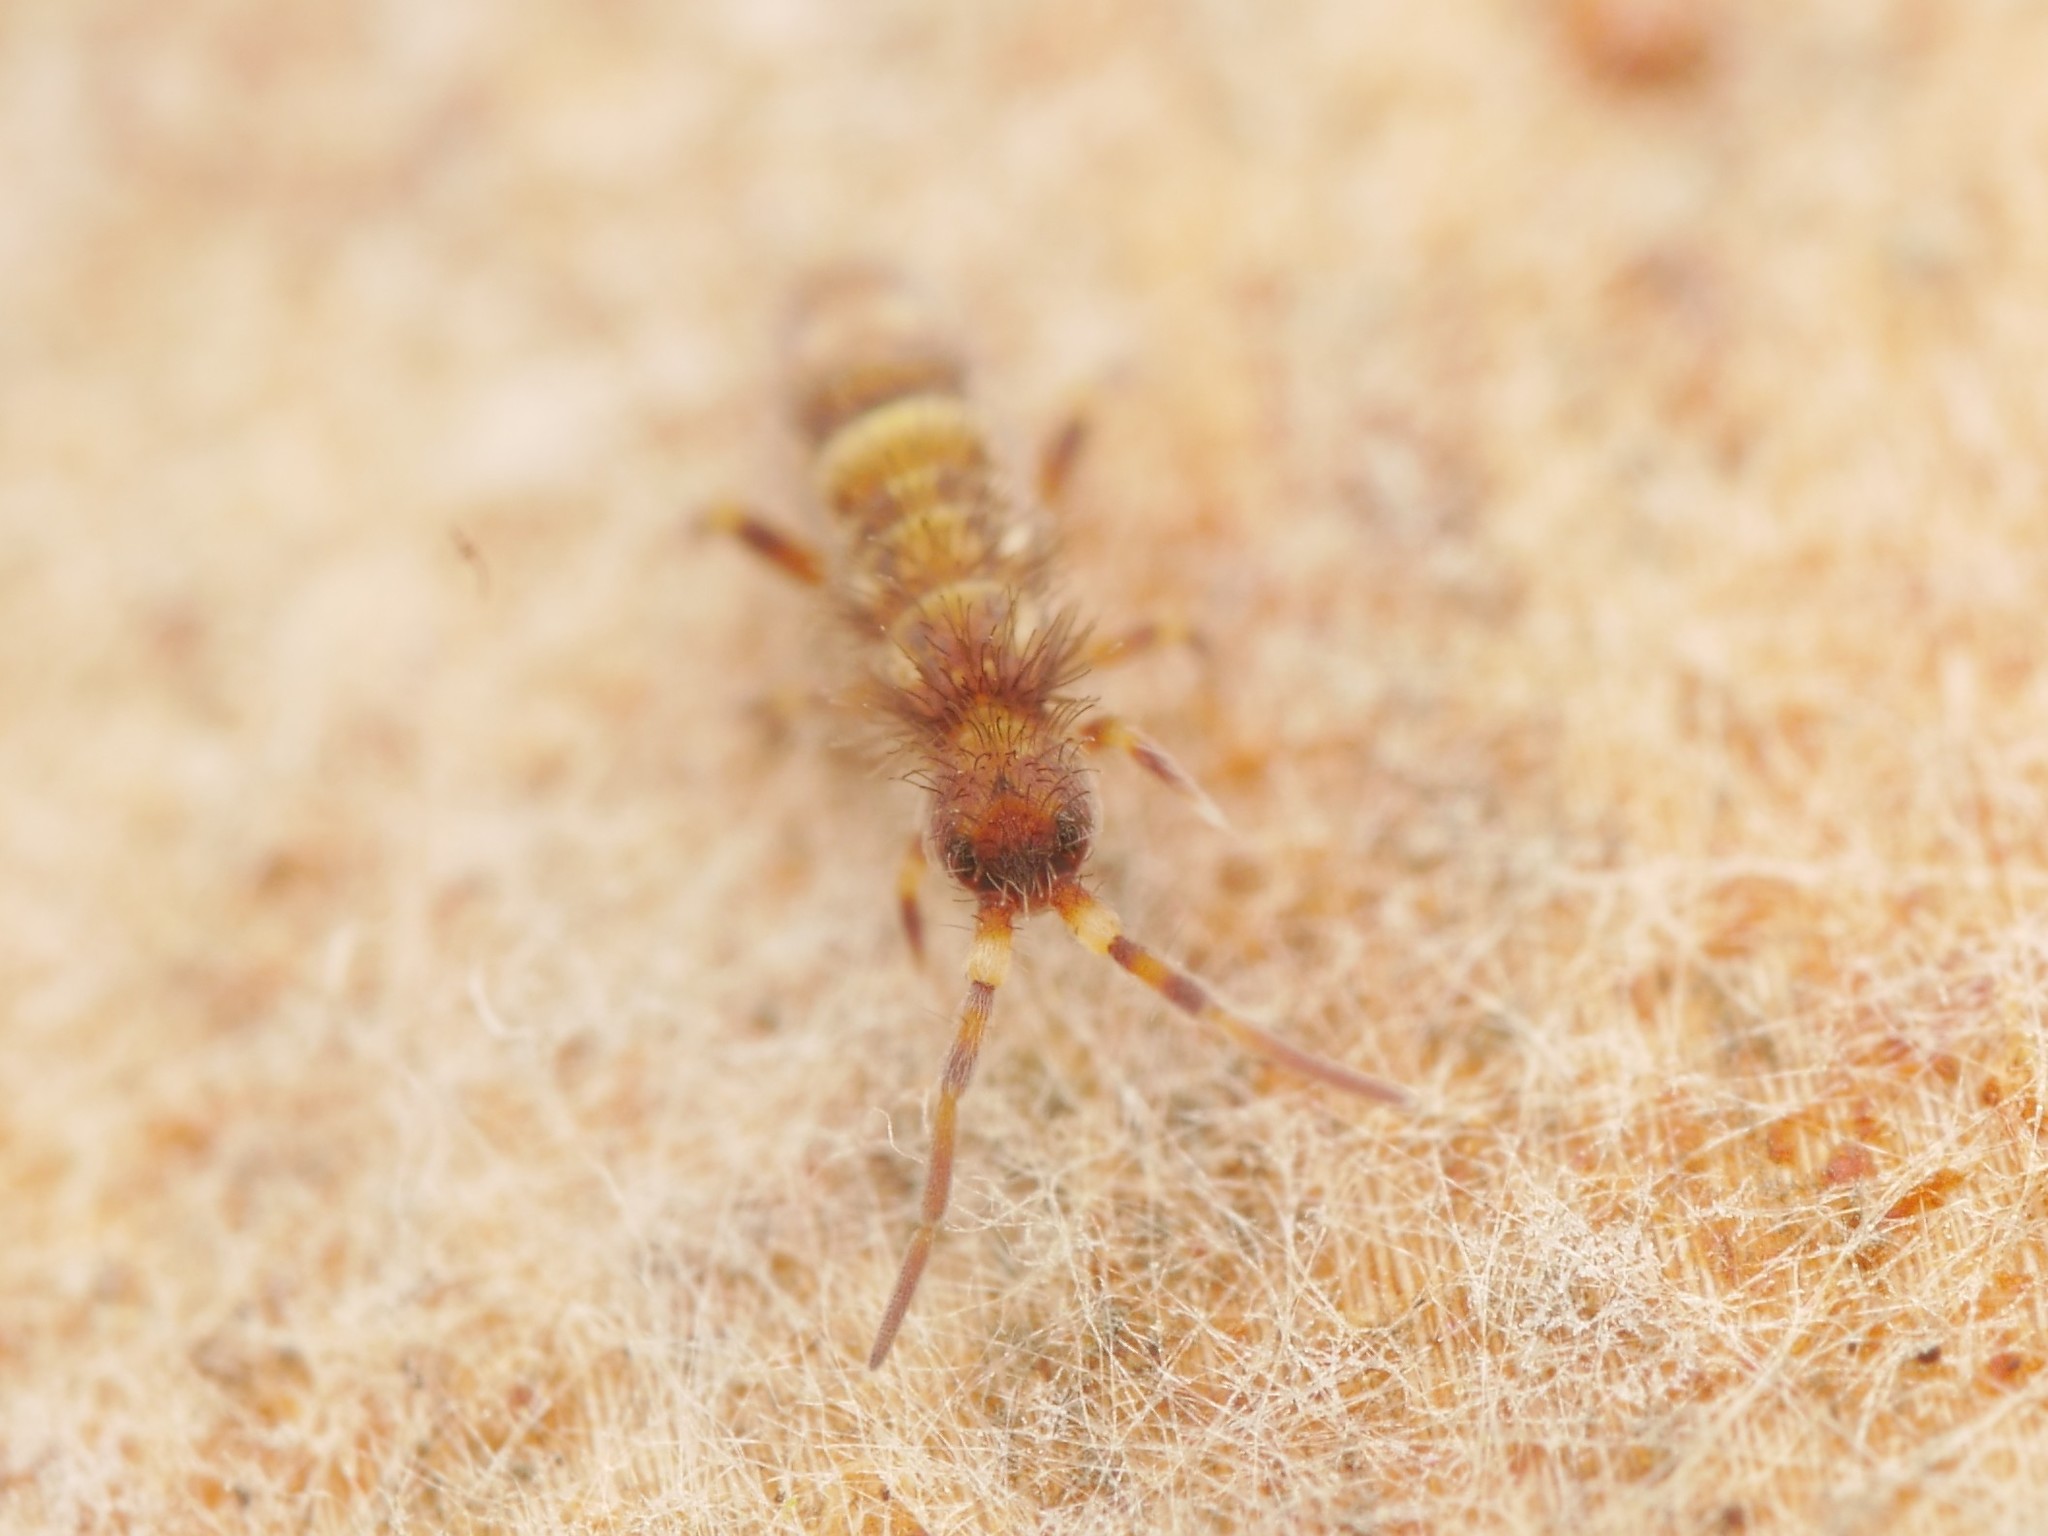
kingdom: Animalia
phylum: Arthropoda
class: Collembola
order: Entomobryomorpha
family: Orchesellidae
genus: Orchesella
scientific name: Orchesella cincta
